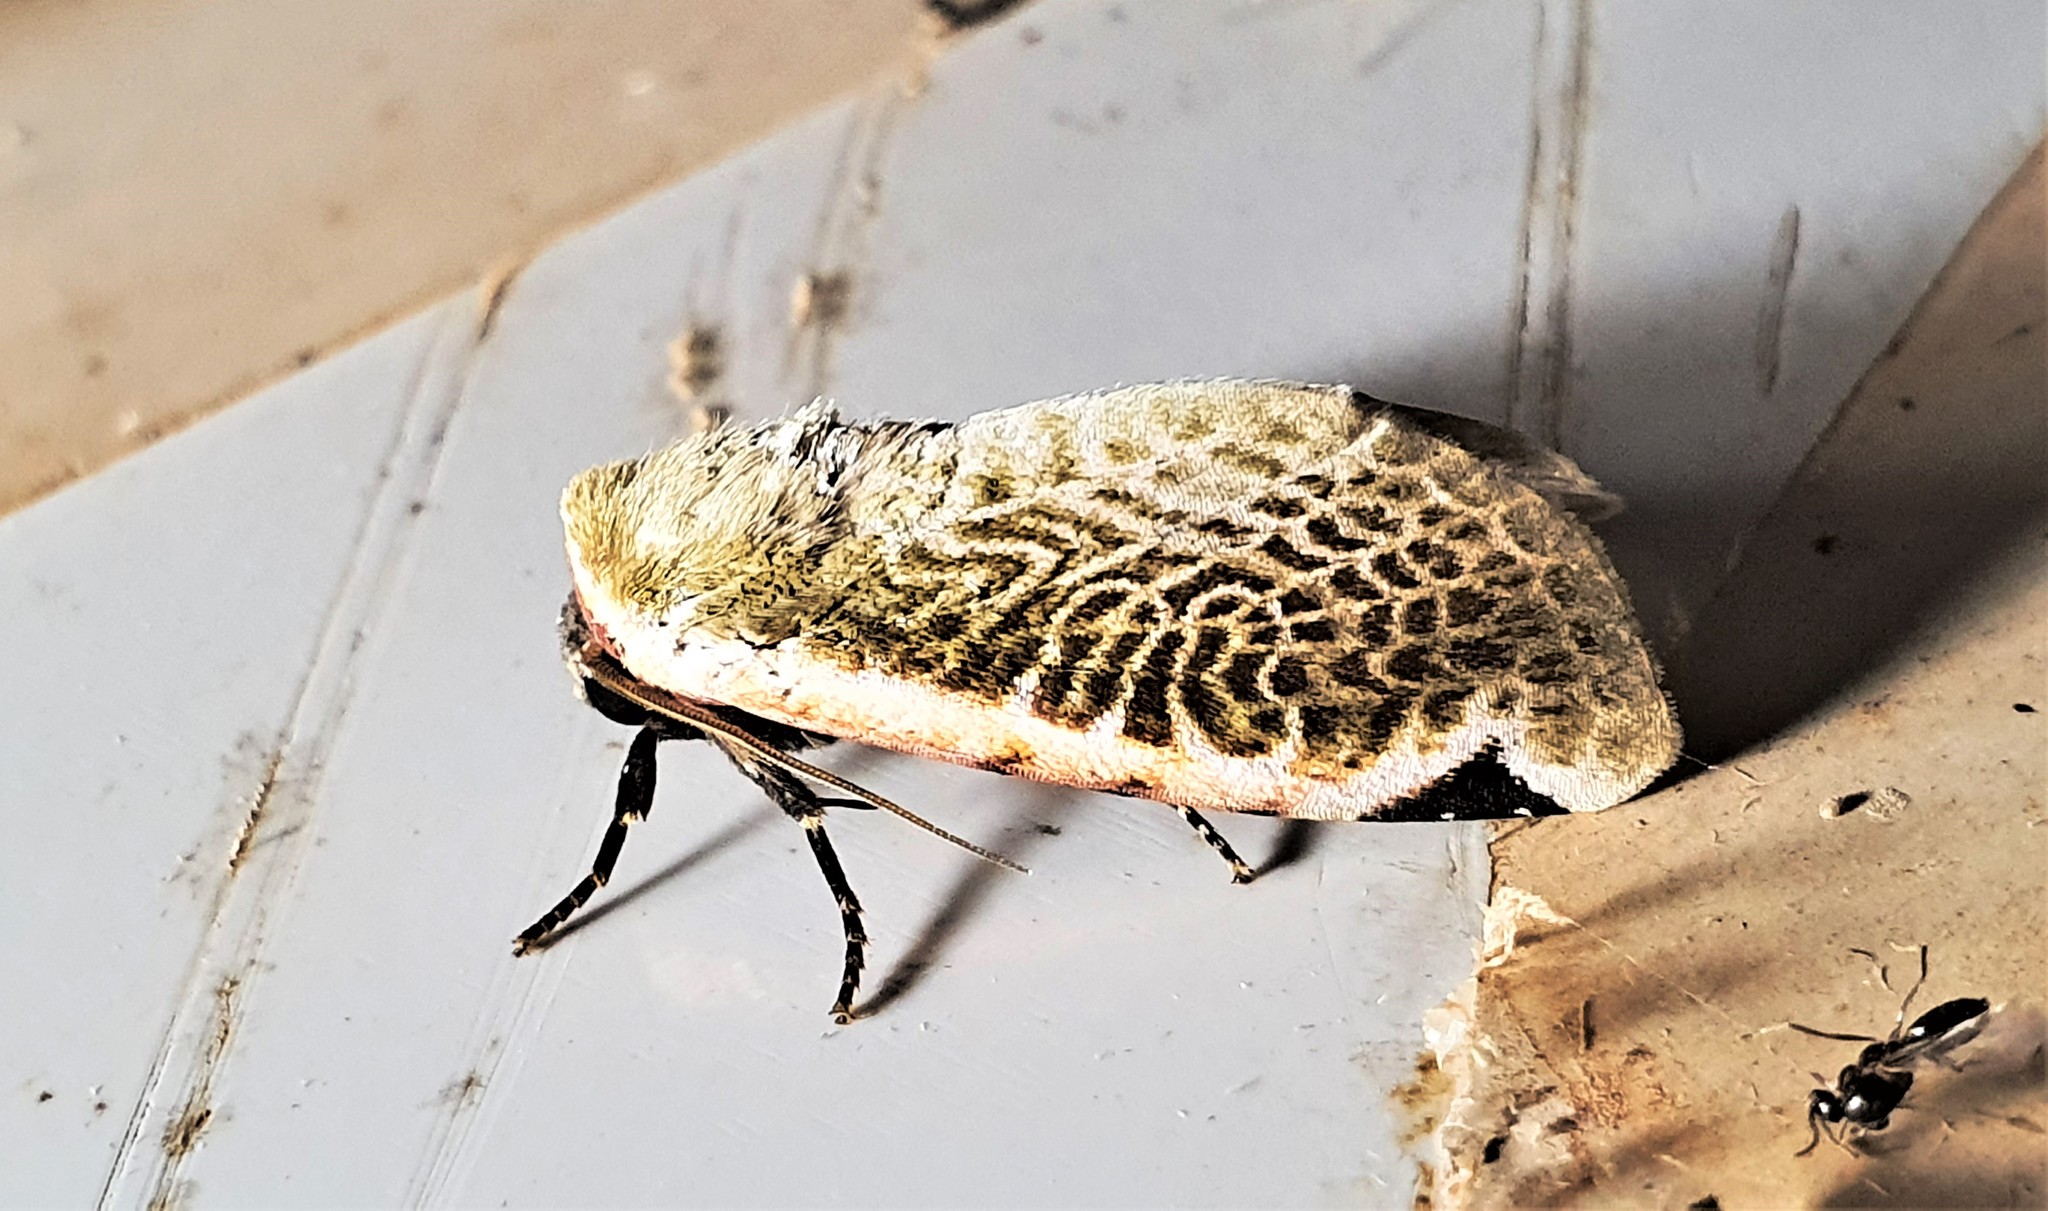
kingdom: Animalia
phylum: Arthropoda
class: Insecta
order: Lepidoptera
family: Noctuidae
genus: Oxythres
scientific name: Oxythres splendens
